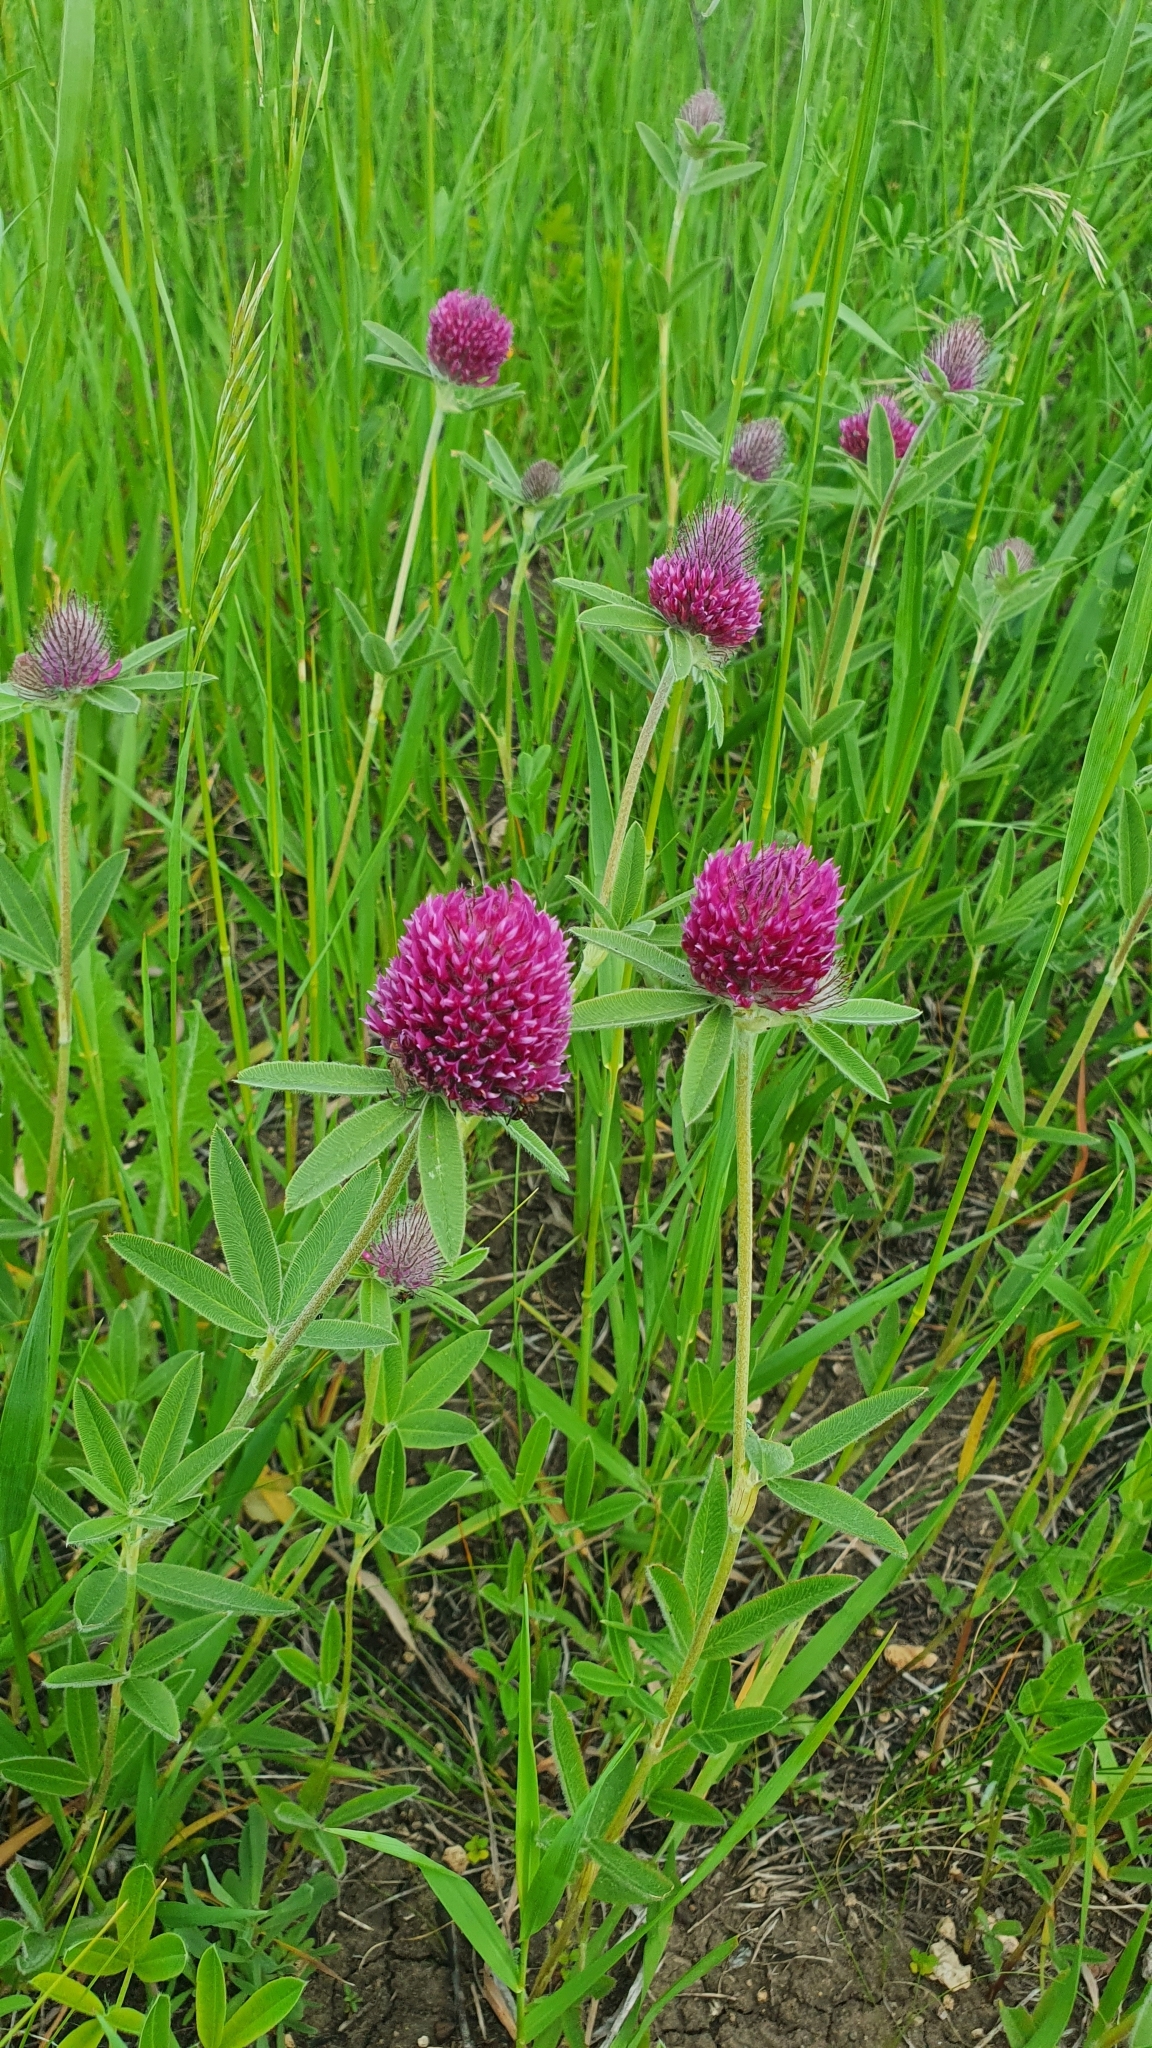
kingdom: Plantae
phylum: Tracheophyta
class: Magnoliopsida
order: Fabales
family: Fabaceae
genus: Trifolium
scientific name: Trifolium alpestre
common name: Owl-head clover
